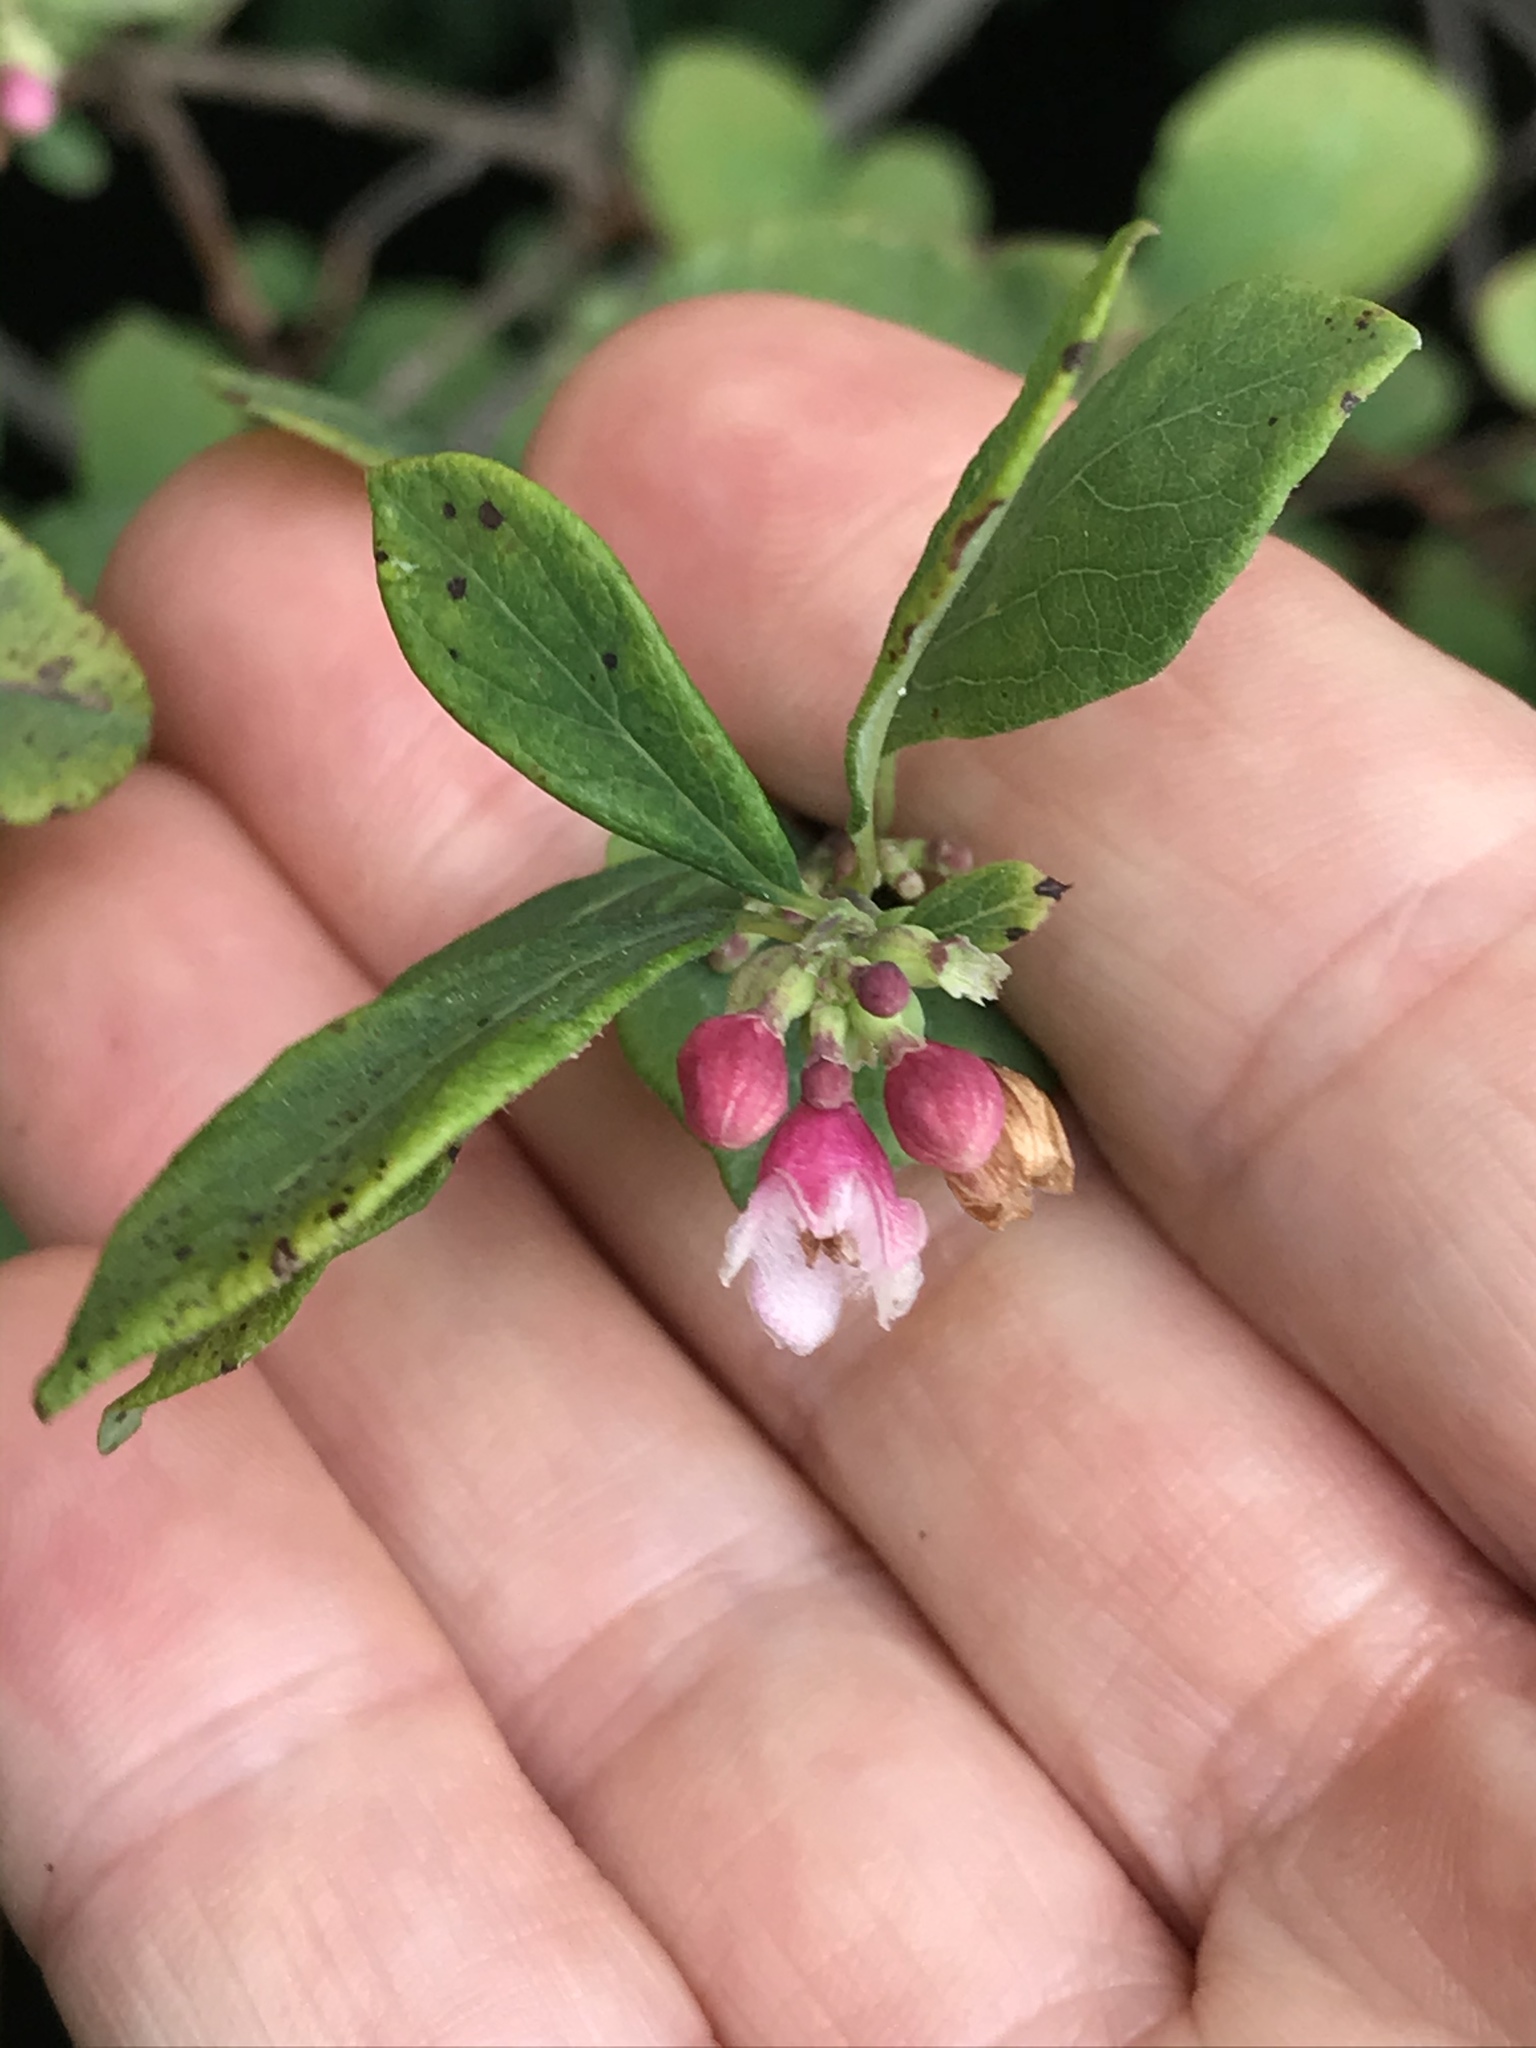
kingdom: Plantae
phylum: Tracheophyta
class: Magnoliopsida
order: Dipsacales
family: Caprifoliaceae
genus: Symphoricarpos
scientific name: Symphoricarpos albus
